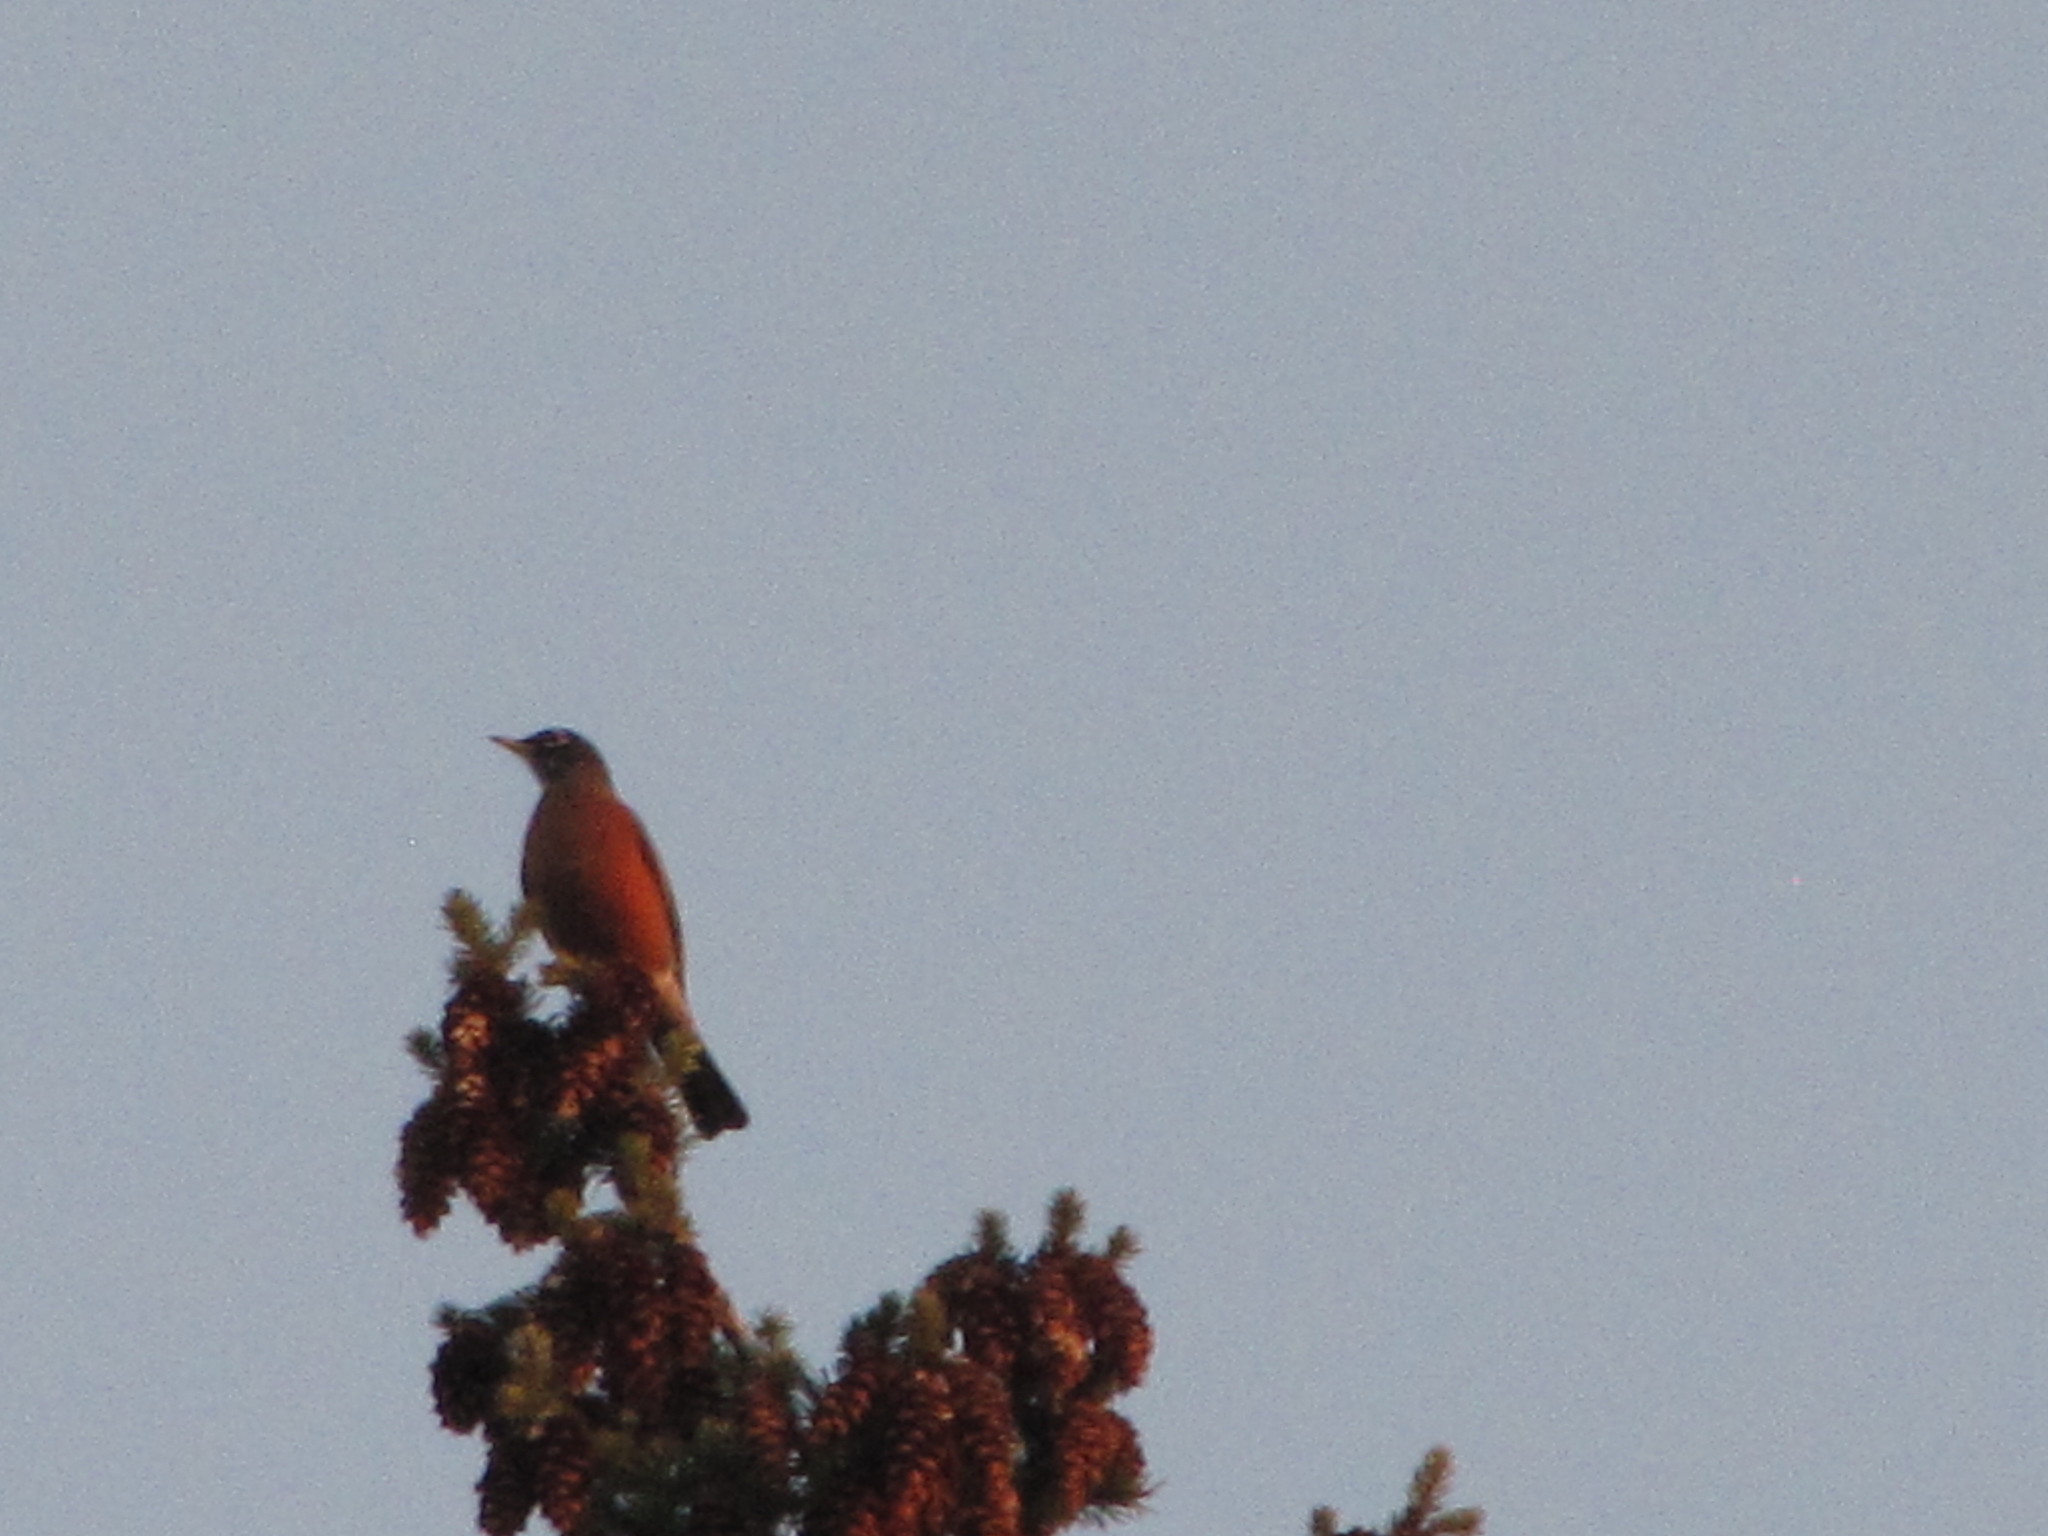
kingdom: Animalia
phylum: Chordata
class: Aves
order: Passeriformes
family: Turdidae
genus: Turdus
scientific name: Turdus migratorius
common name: American robin
